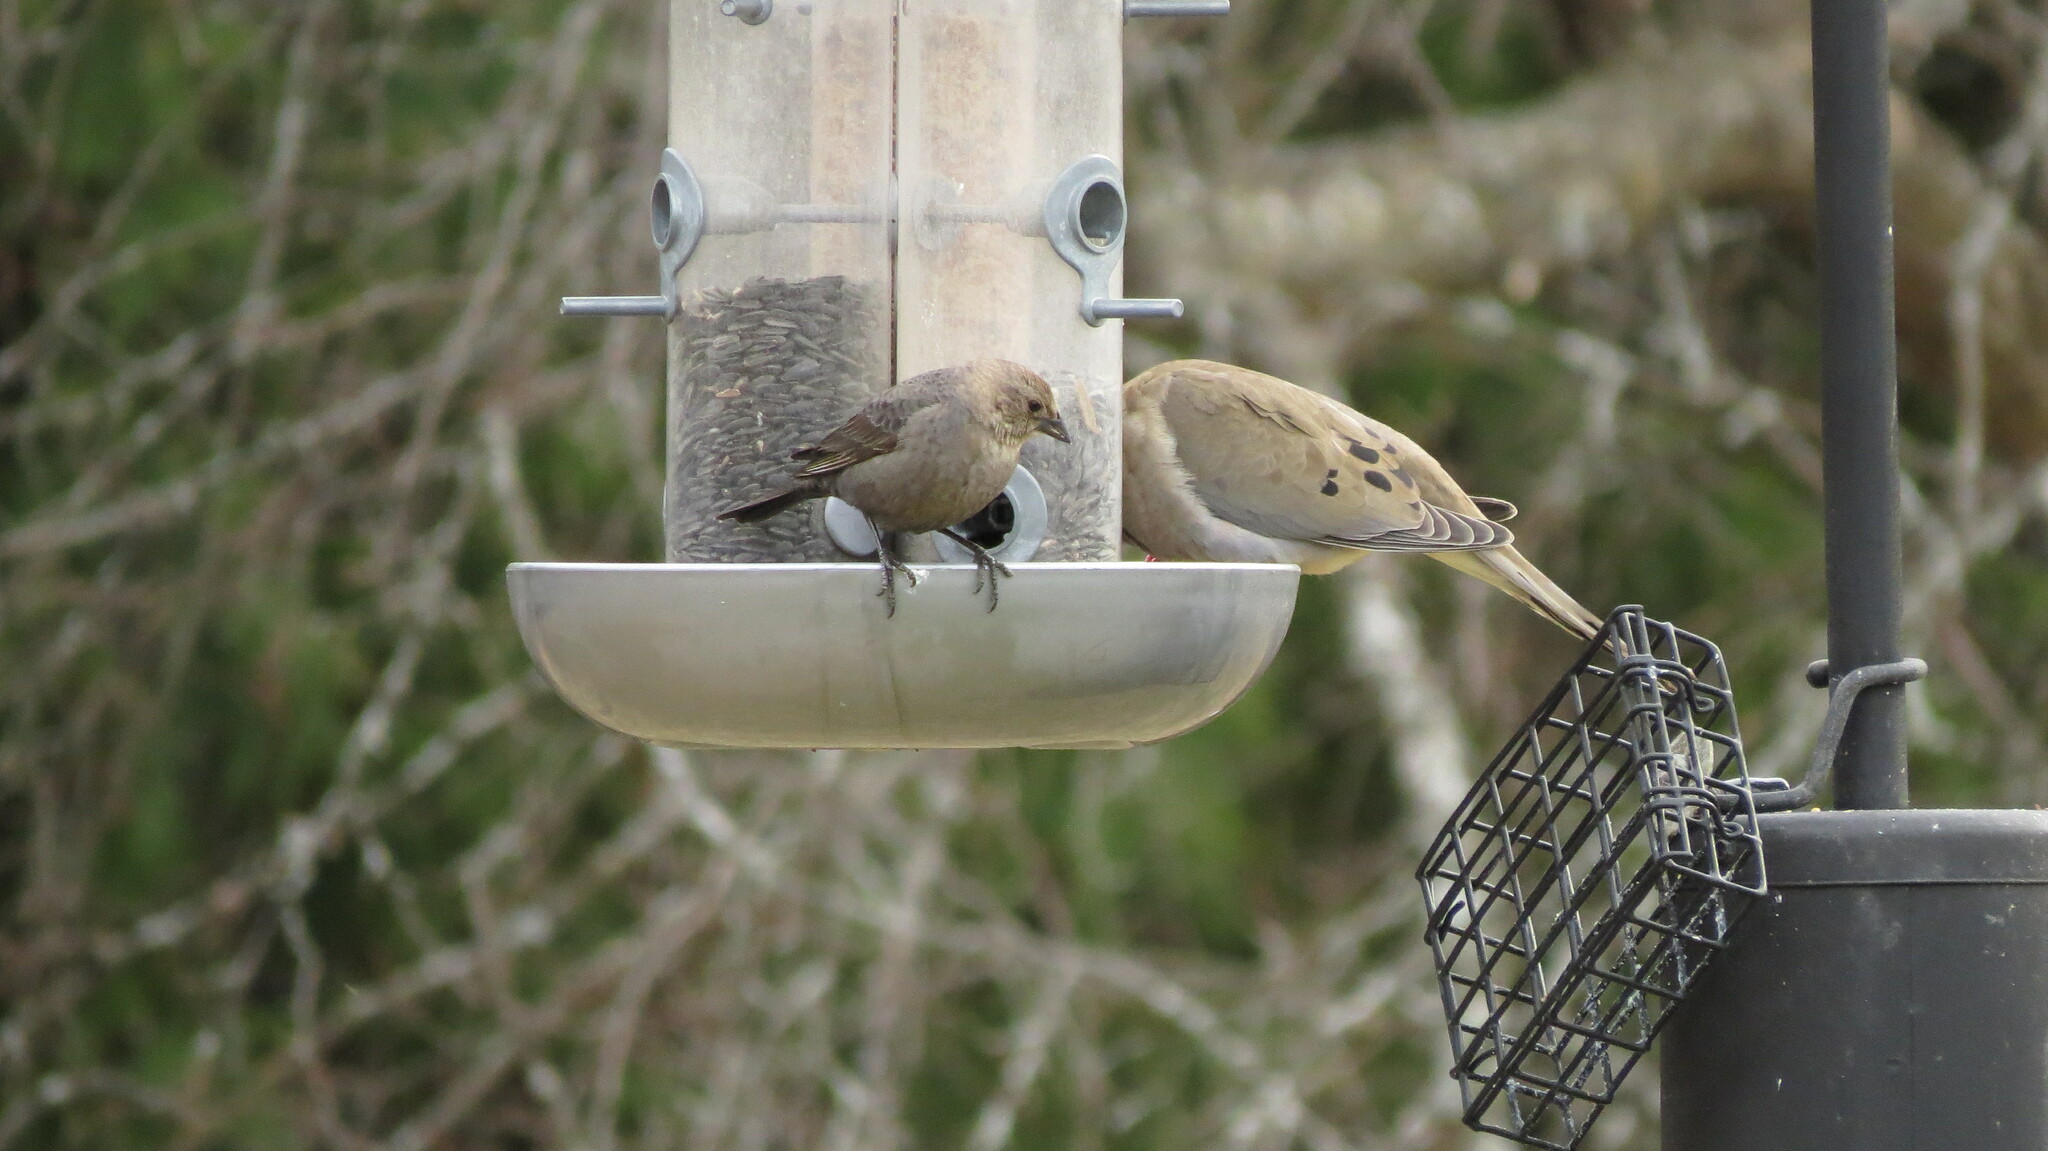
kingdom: Animalia
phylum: Chordata
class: Aves
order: Passeriformes
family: Icteridae
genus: Molothrus
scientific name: Molothrus ater
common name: Brown-headed cowbird
